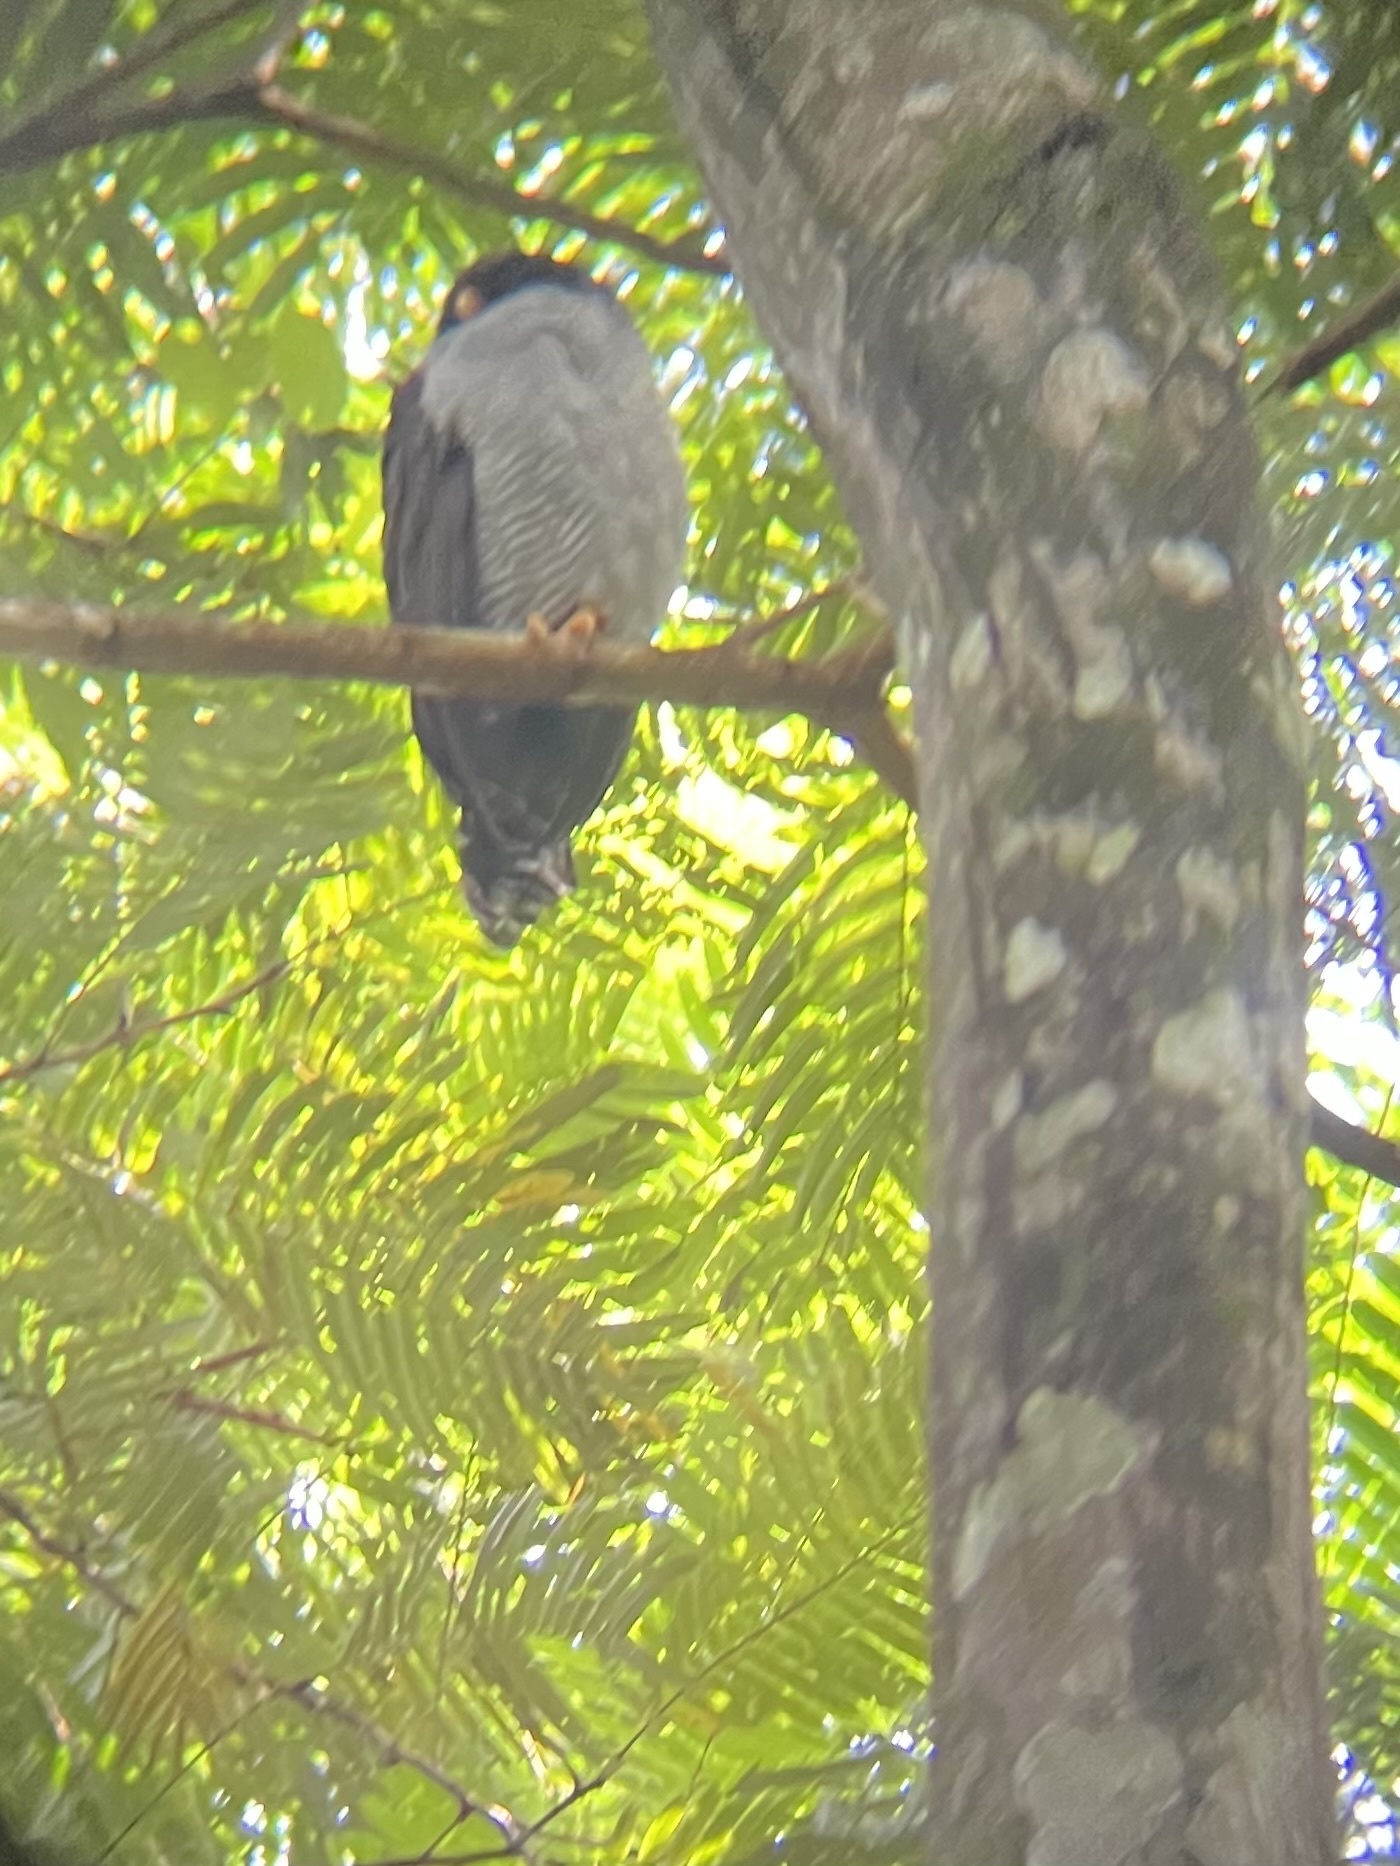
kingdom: Animalia
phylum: Chordata
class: Aves
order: Strigiformes
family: Strigidae
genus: Strix
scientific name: Strix nigrolineata
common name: Black-and-white owl
